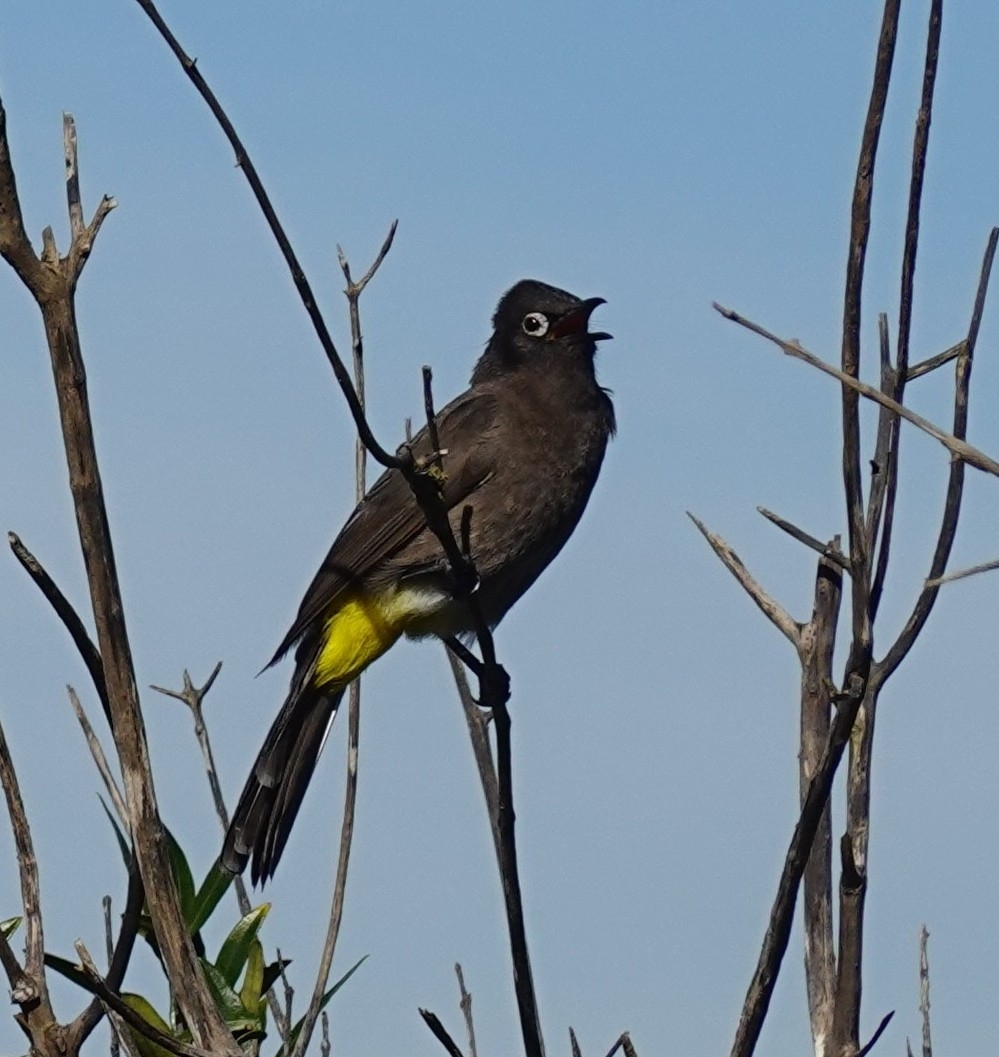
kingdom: Animalia
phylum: Chordata
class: Aves
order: Passeriformes
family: Pycnonotidae
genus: Pycnonotus
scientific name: Pycnonotus capensis
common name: Cape bulbul
